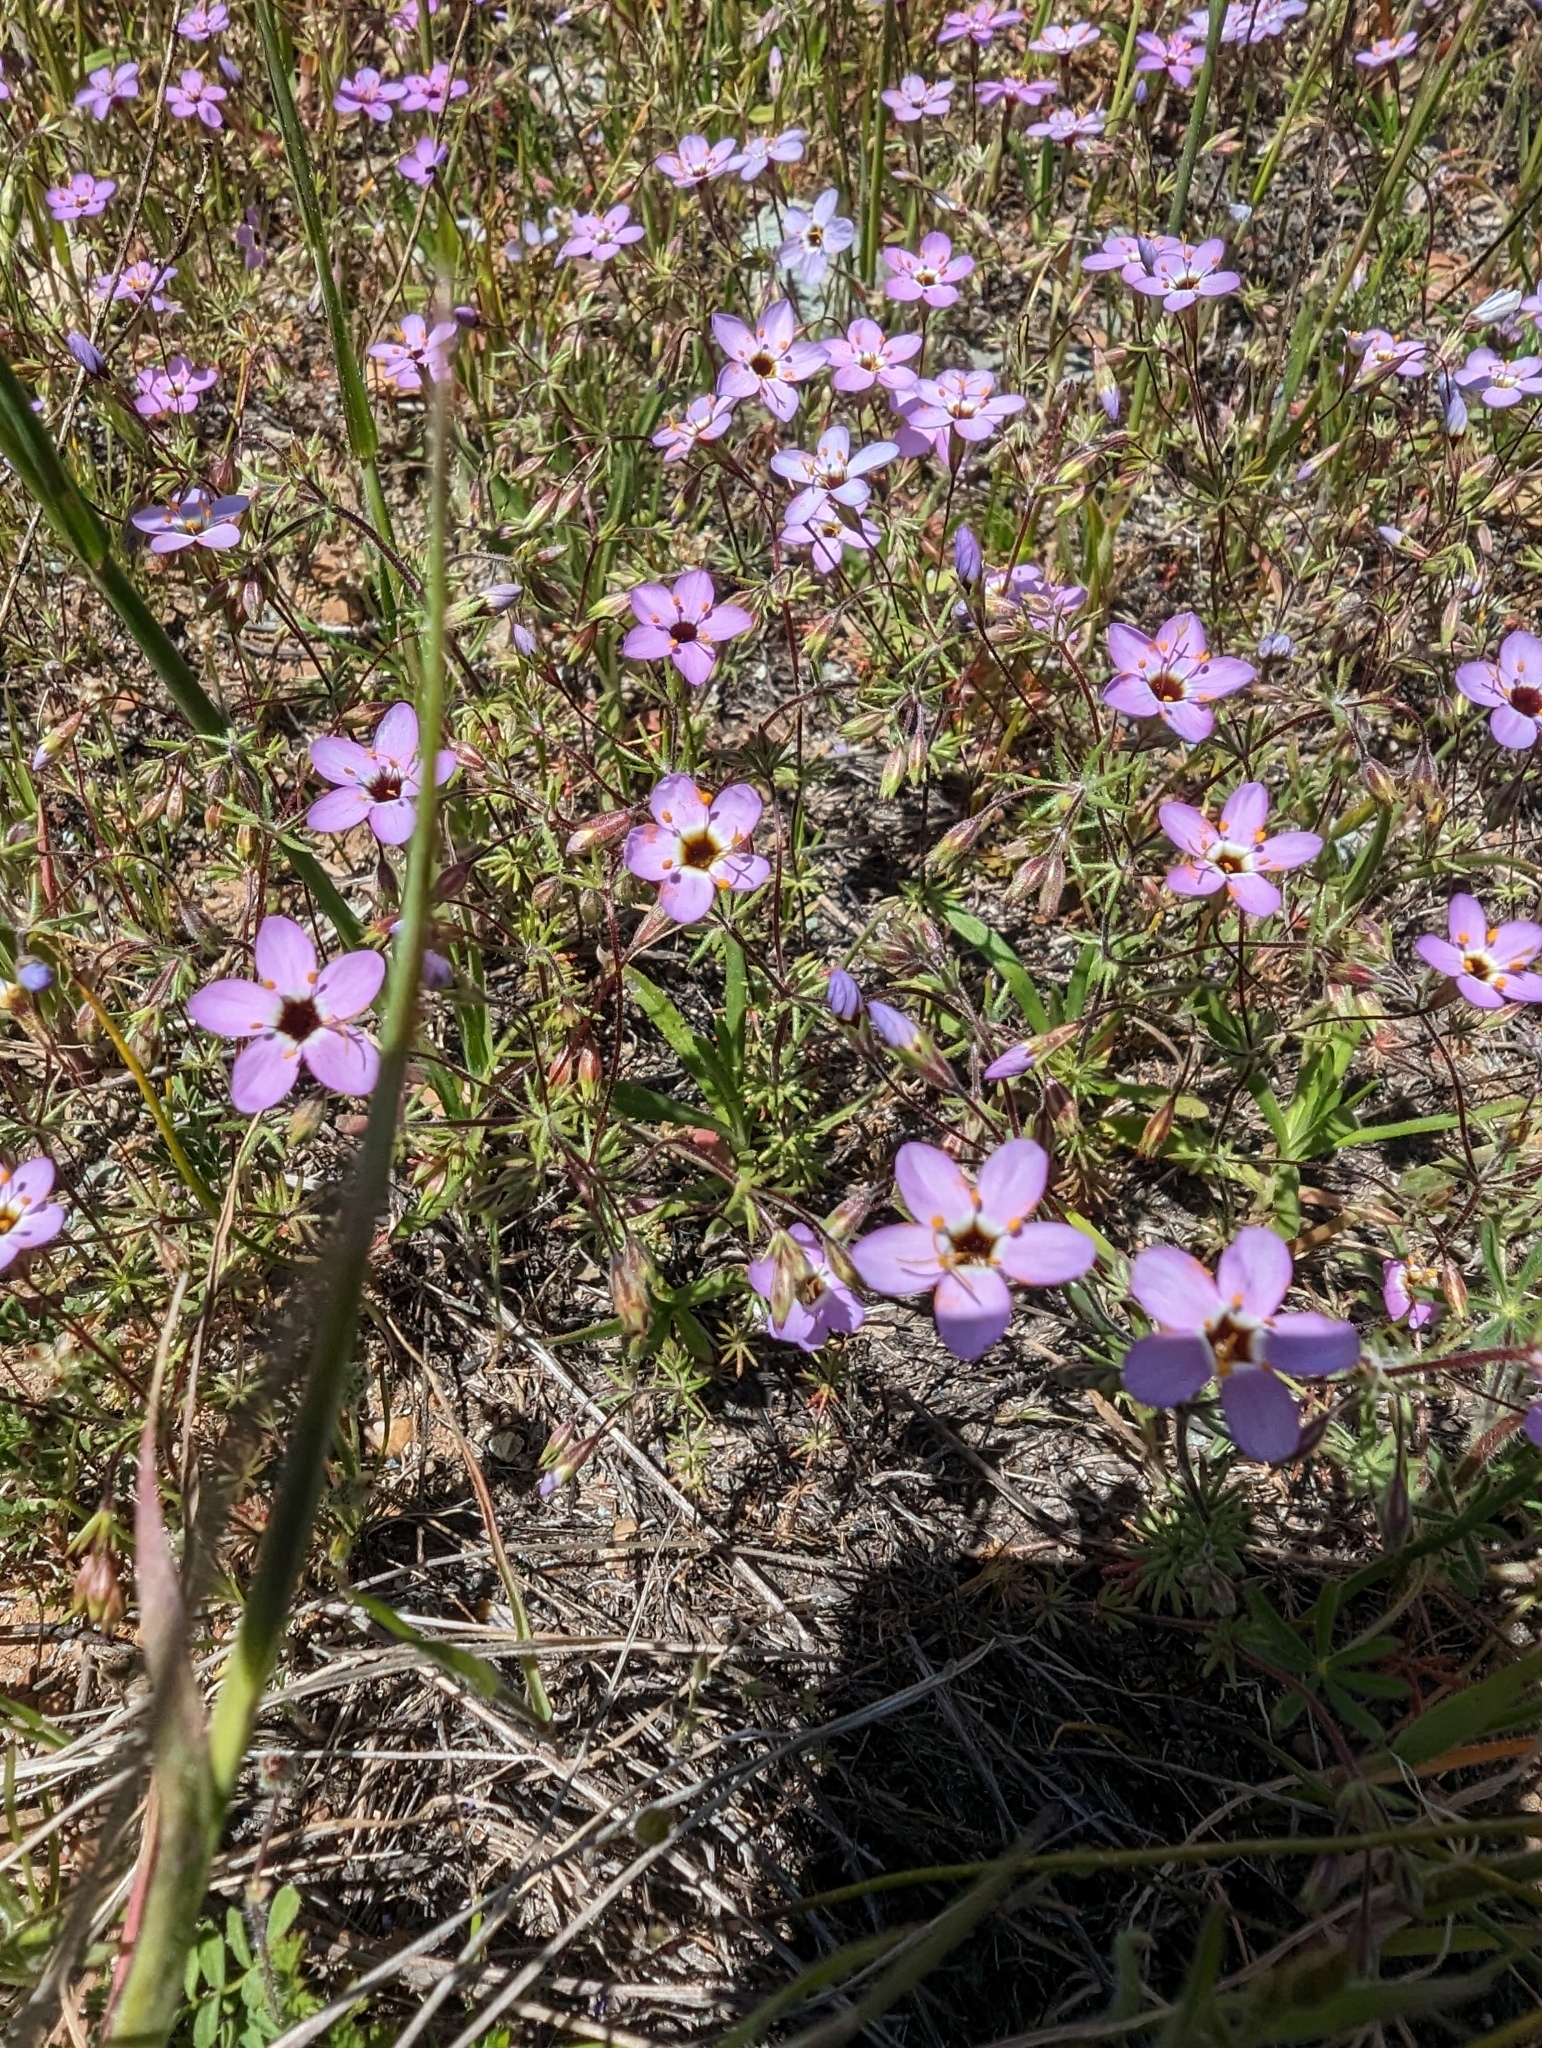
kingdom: Plantae
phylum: Tracheophyta
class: Magnoliopsida
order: Ericales
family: Polemoniaceae
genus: Leptosiphon
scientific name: Leptosiphon ambiguus
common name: Serpentine linanthus
